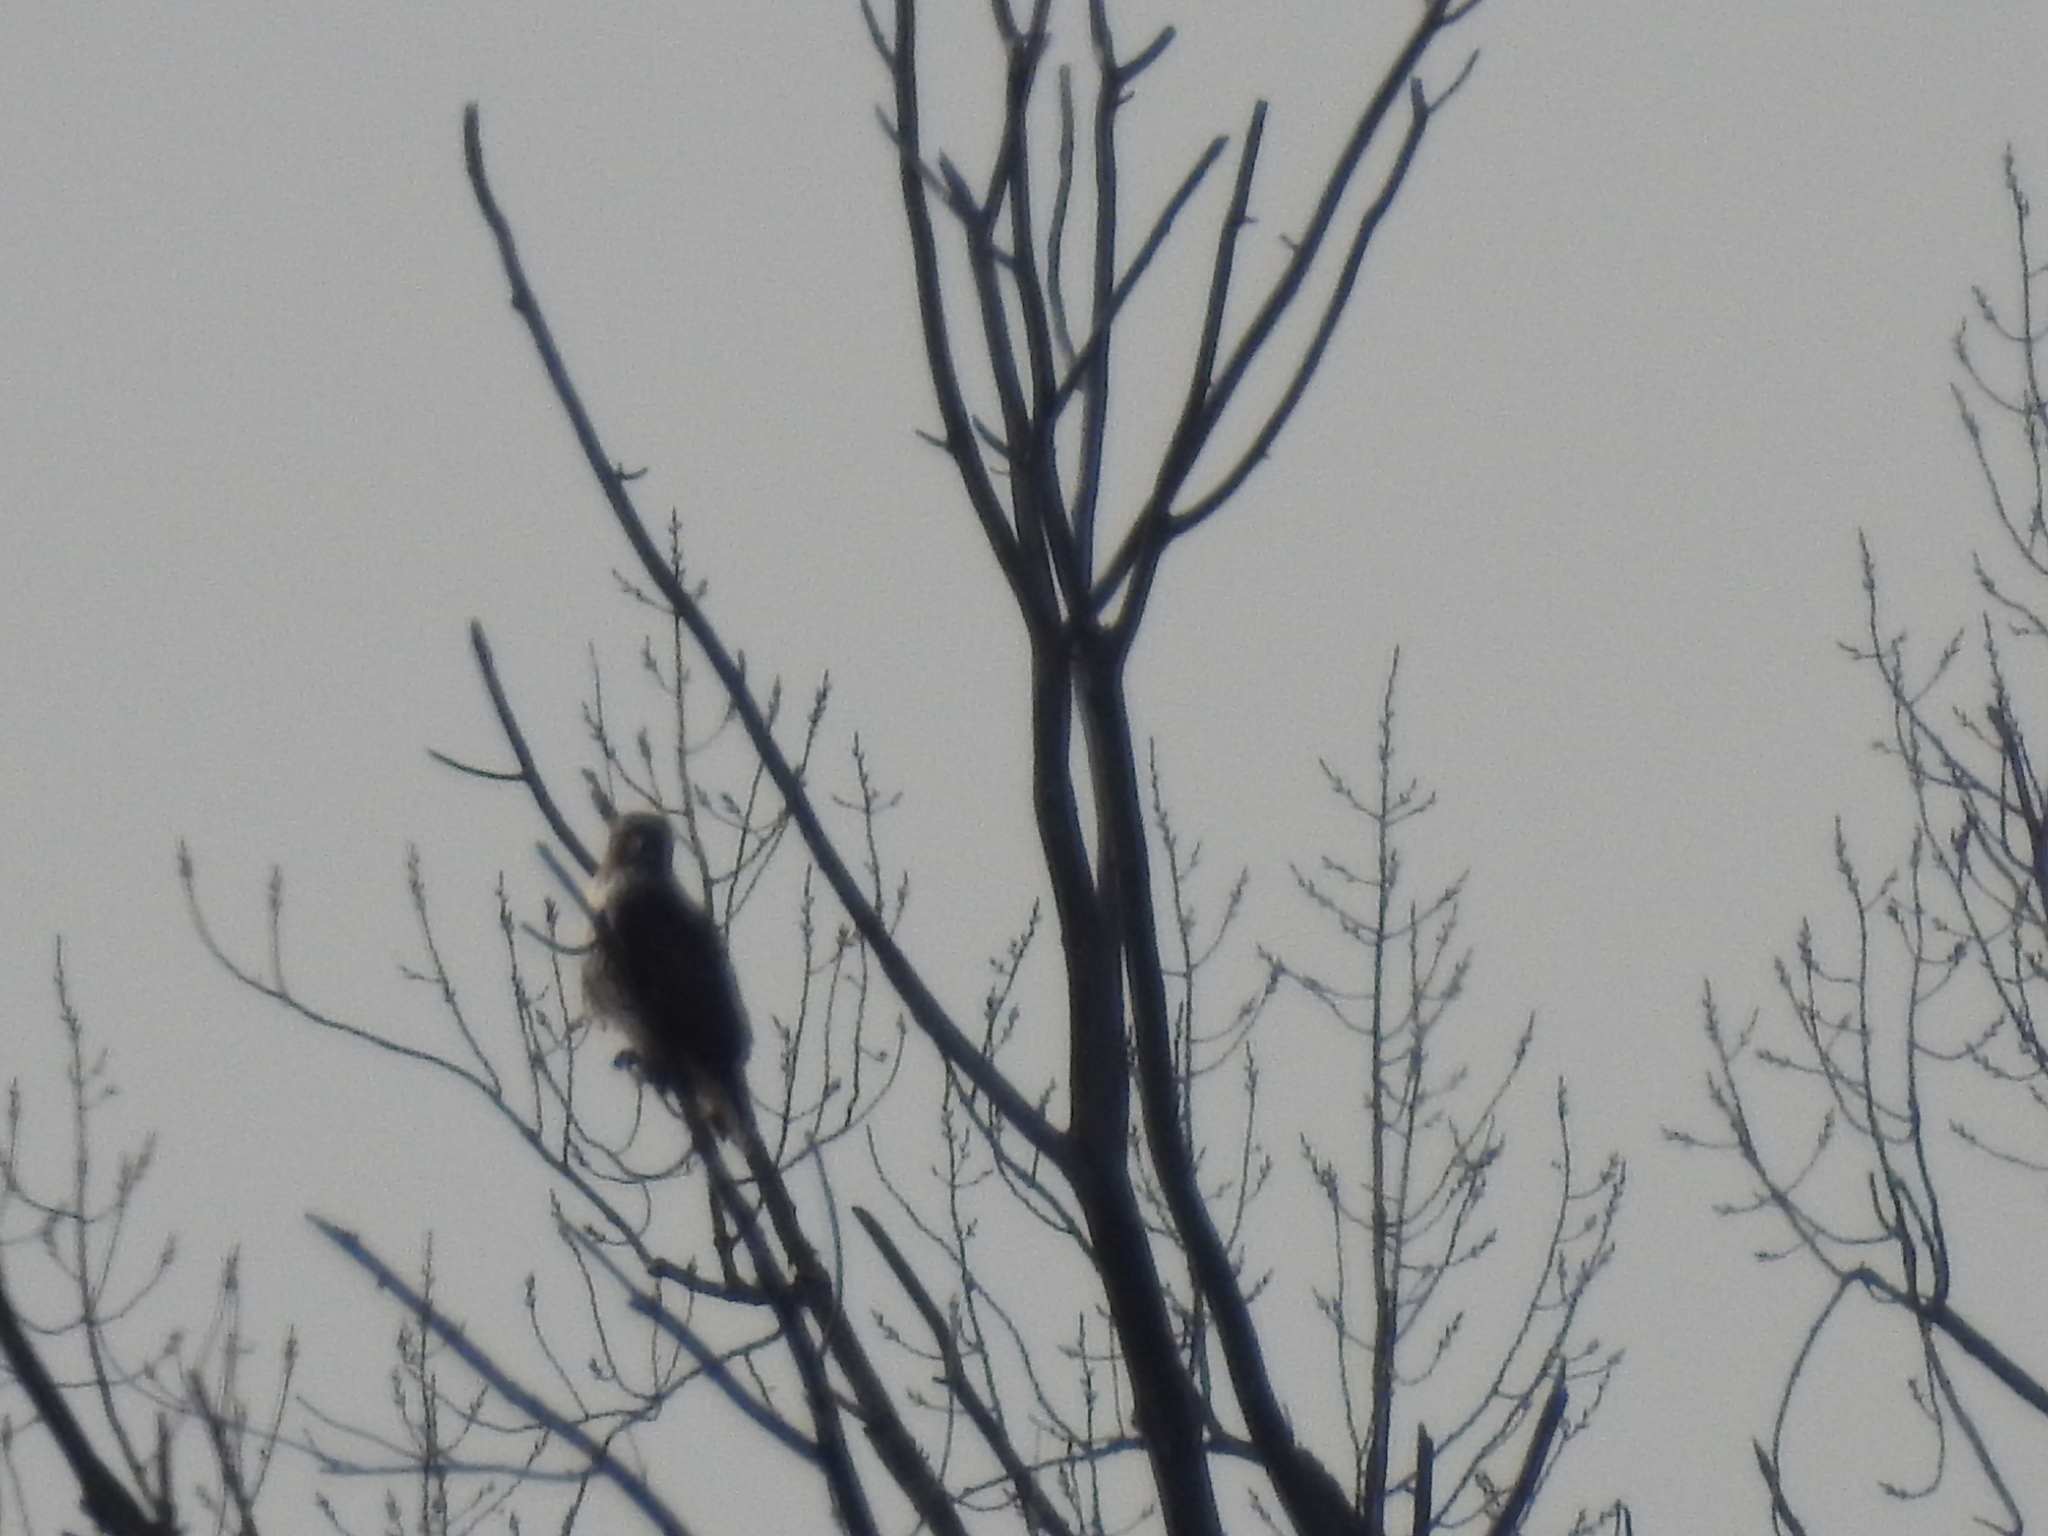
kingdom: Animalia
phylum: Chordata
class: Aves
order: Accipitriformes
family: Accipitridae
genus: Buteo
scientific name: Buteo jamaicensis
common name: Red-tailed hawk
